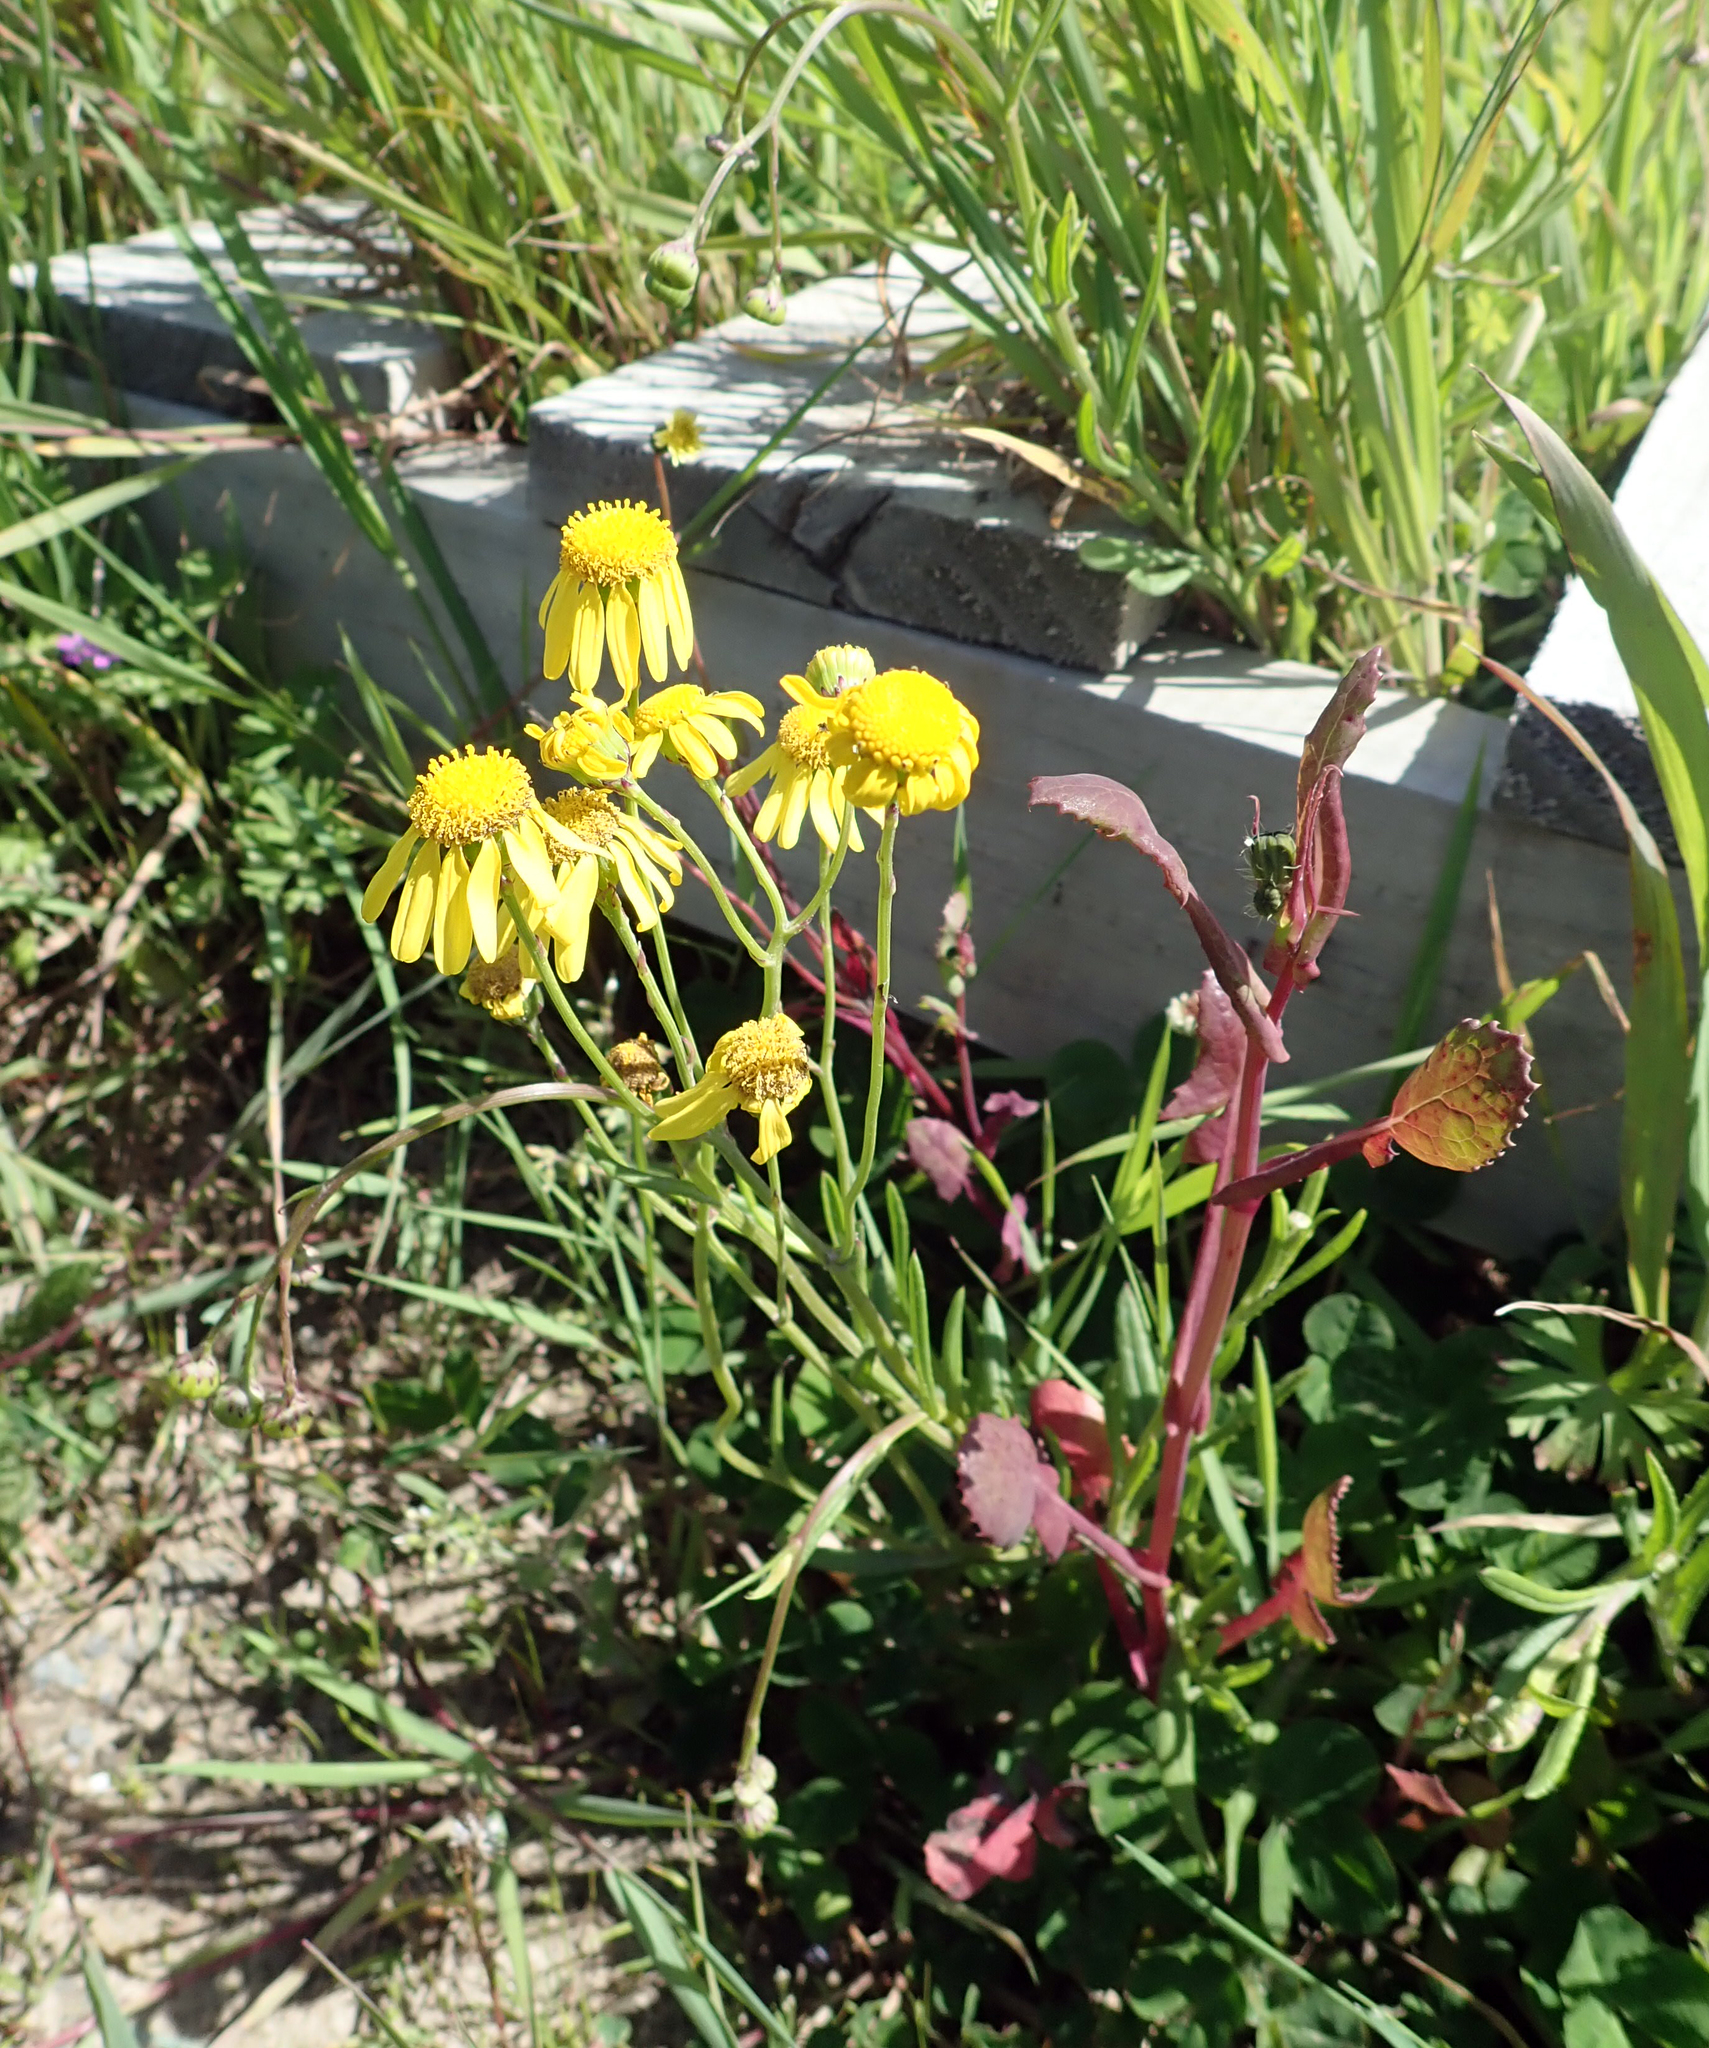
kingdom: Plantae
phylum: Tracheophyta
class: Magnoliopsida
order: Asterales
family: Asteraceae
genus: Senecio
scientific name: Senecio skirrhodon
